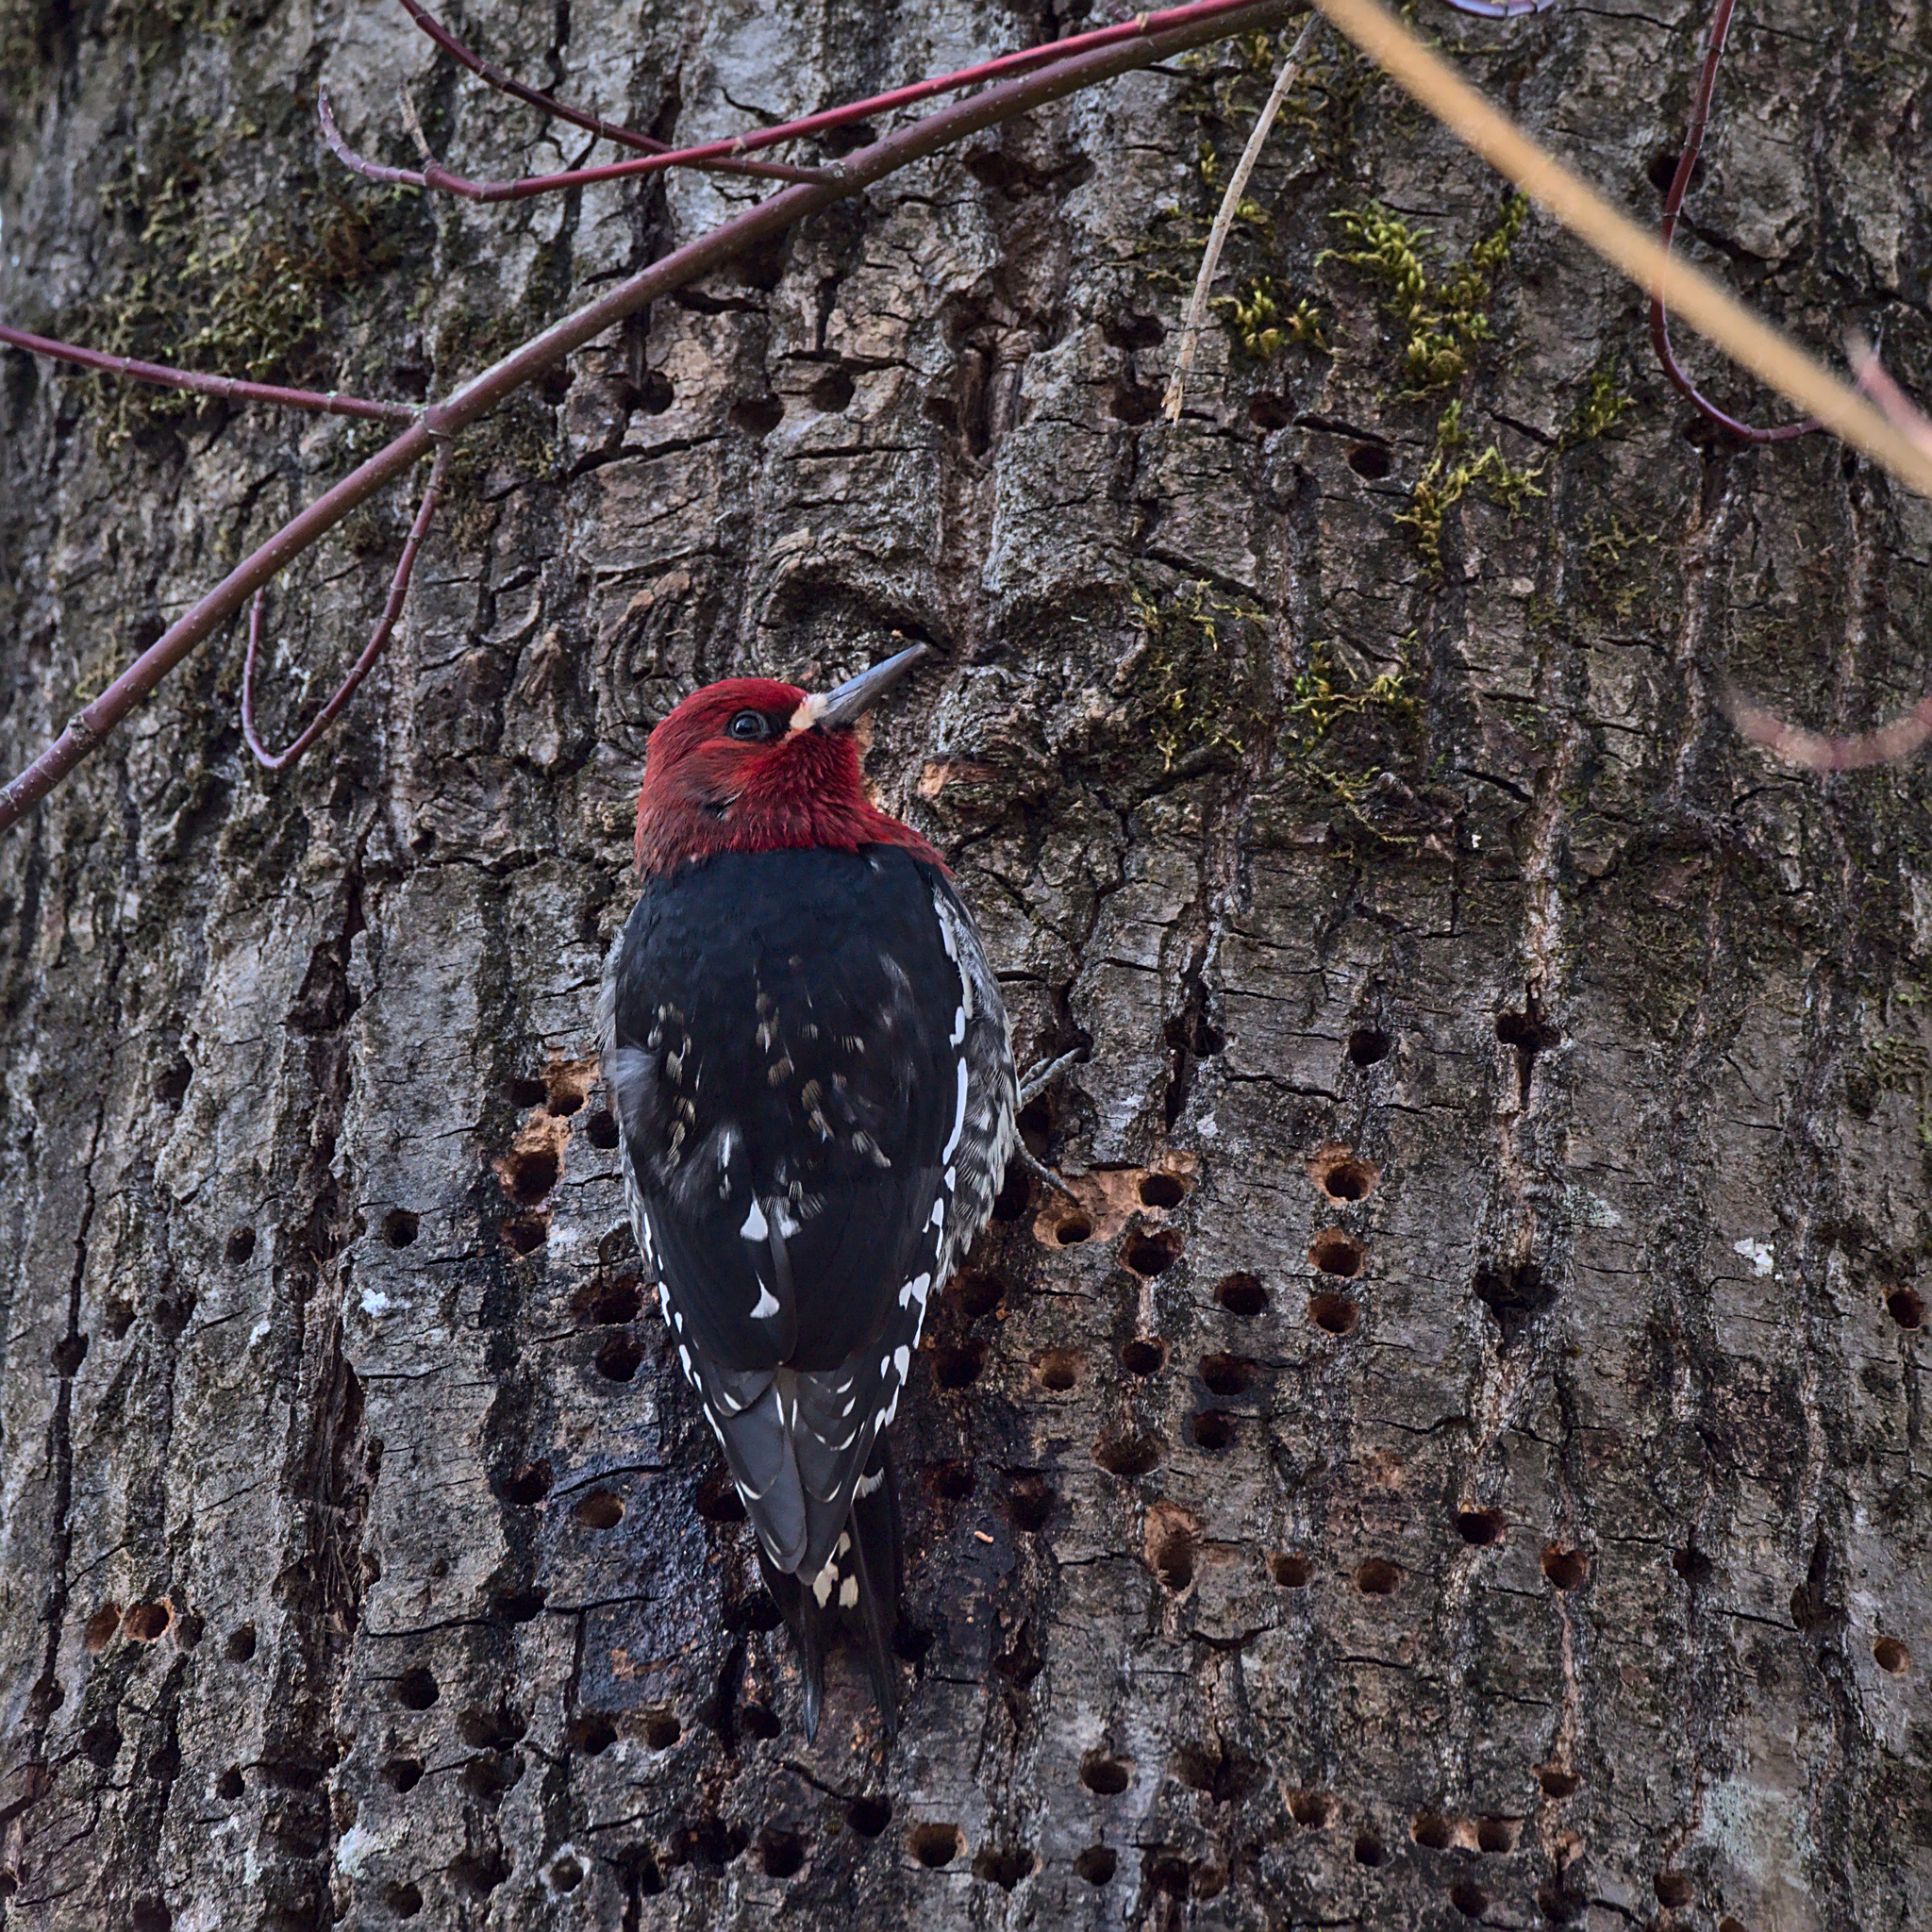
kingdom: Animalia
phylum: Chordata
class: Aves
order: Piciformes
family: Picidae
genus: Sphyrapicus
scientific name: Sphyrapicus ruber
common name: Red-breasted sapsucker
